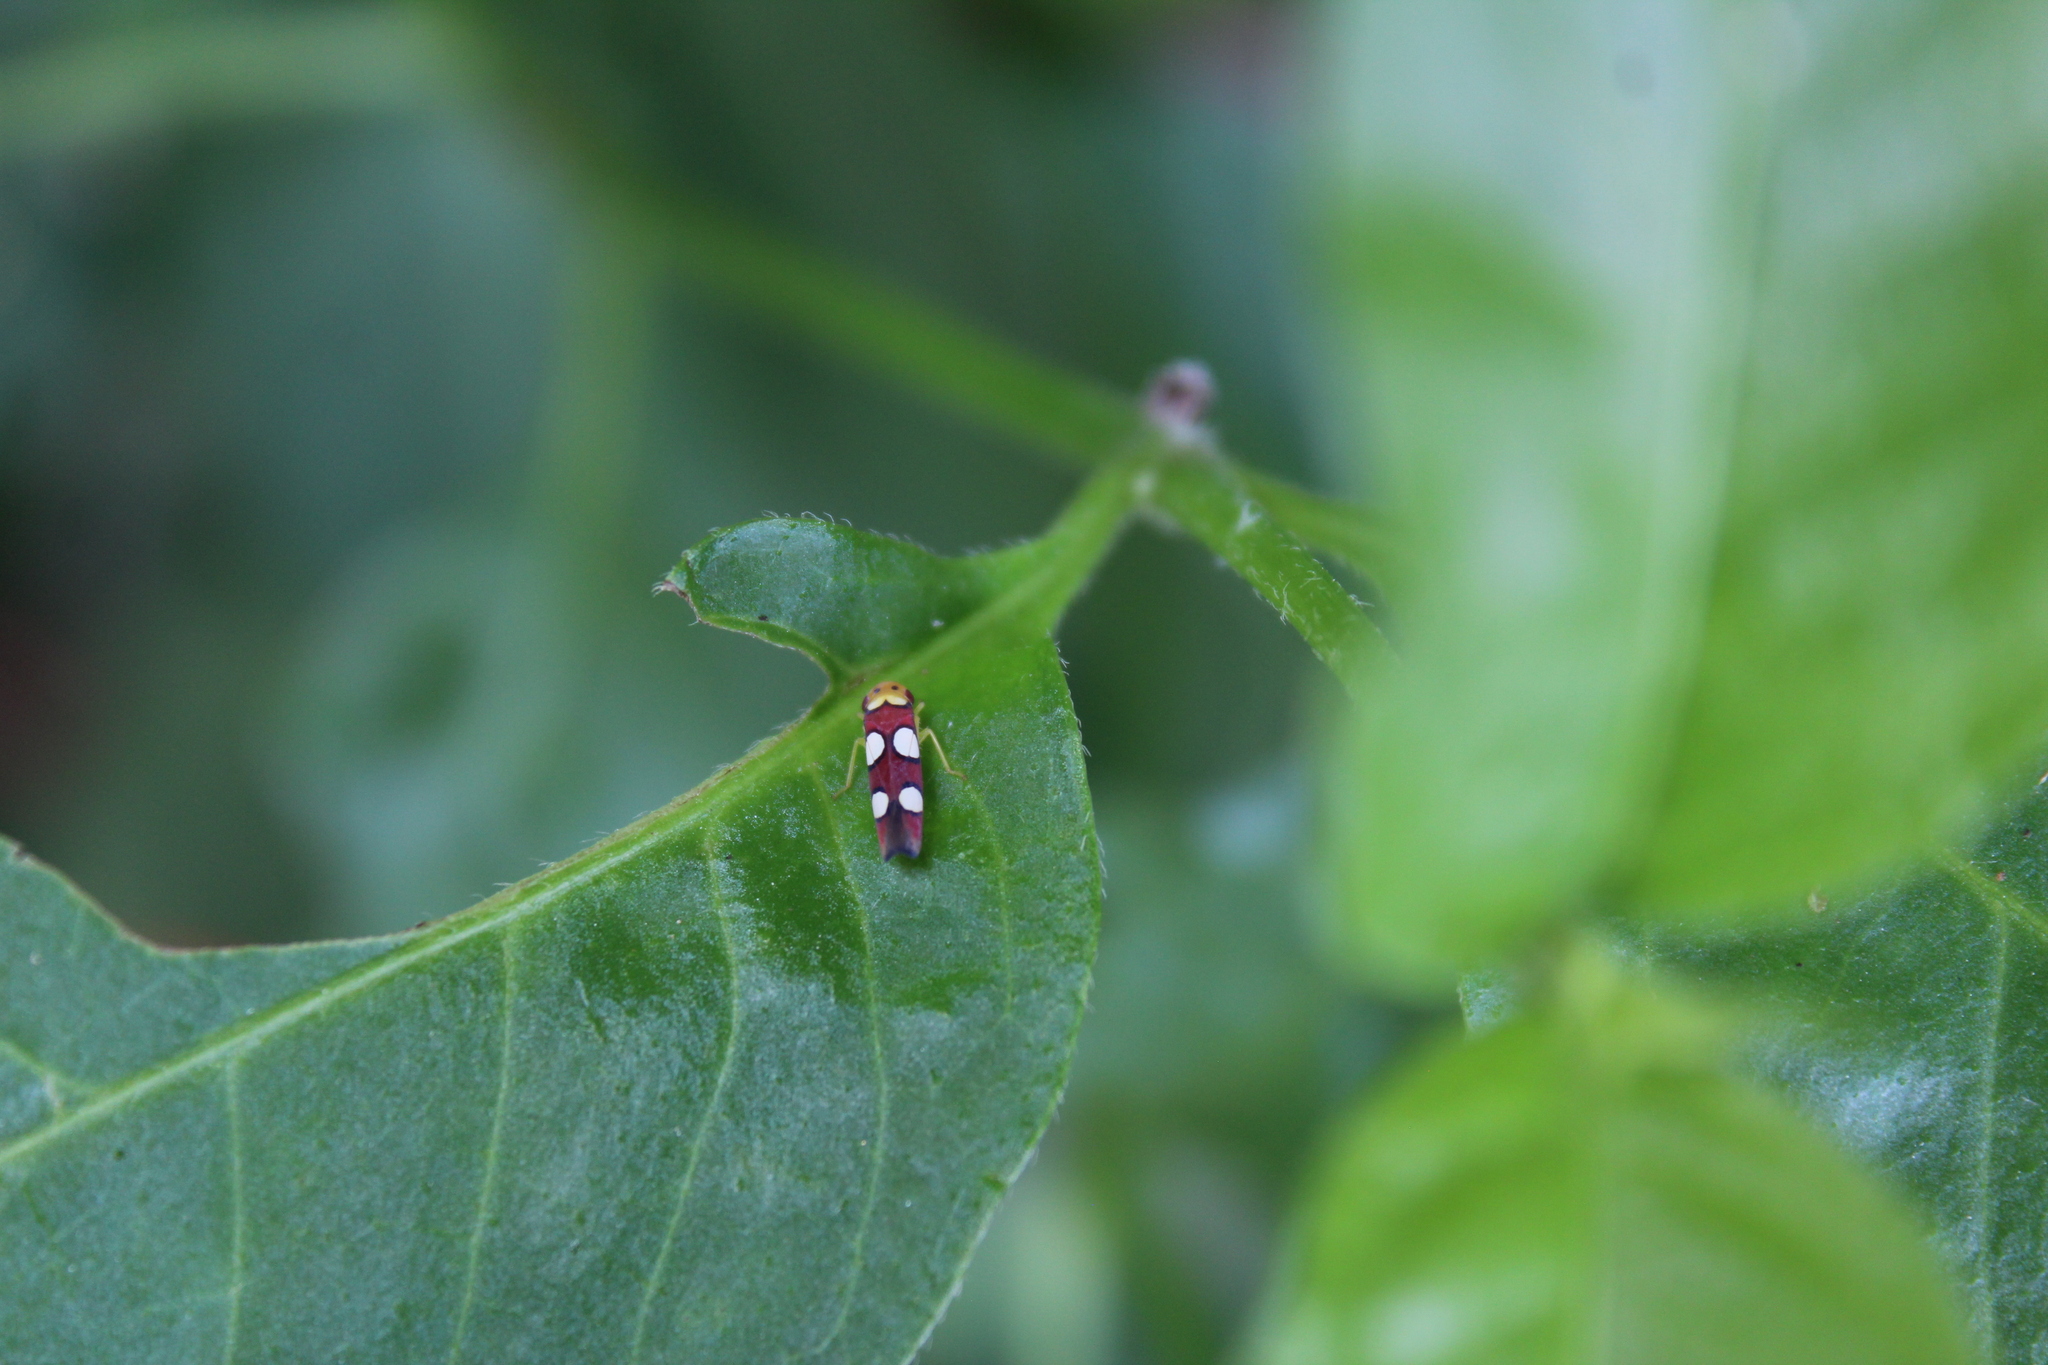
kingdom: Animalia
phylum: Arthropoda
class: Insecta
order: Hemiptera
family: Cicadellidae
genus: Erythrogonia
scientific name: Erythrogonia laudata
